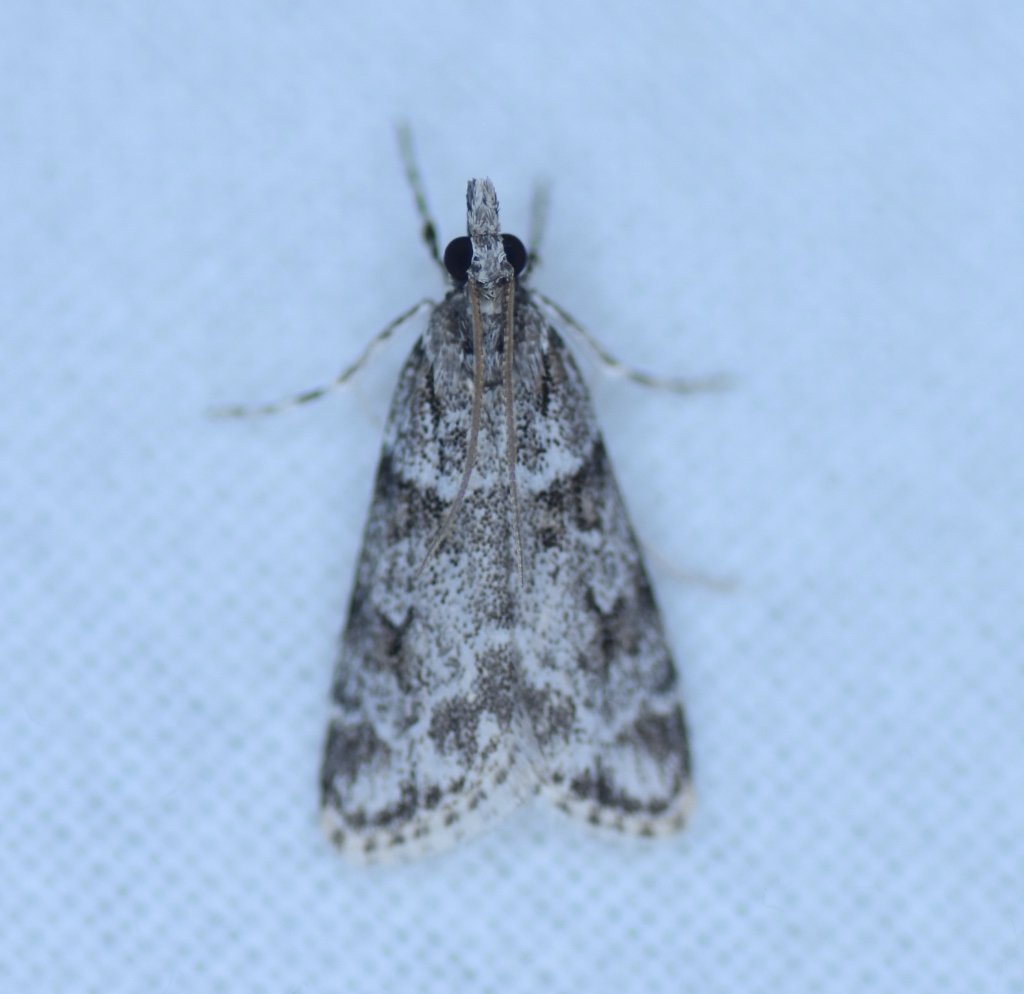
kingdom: Animalia
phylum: Arthropoda
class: Insecta
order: Lepidoptera
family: Crambidae
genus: Scoparia
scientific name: Scoparia biplagialis
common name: Double-striped scoparia moth
